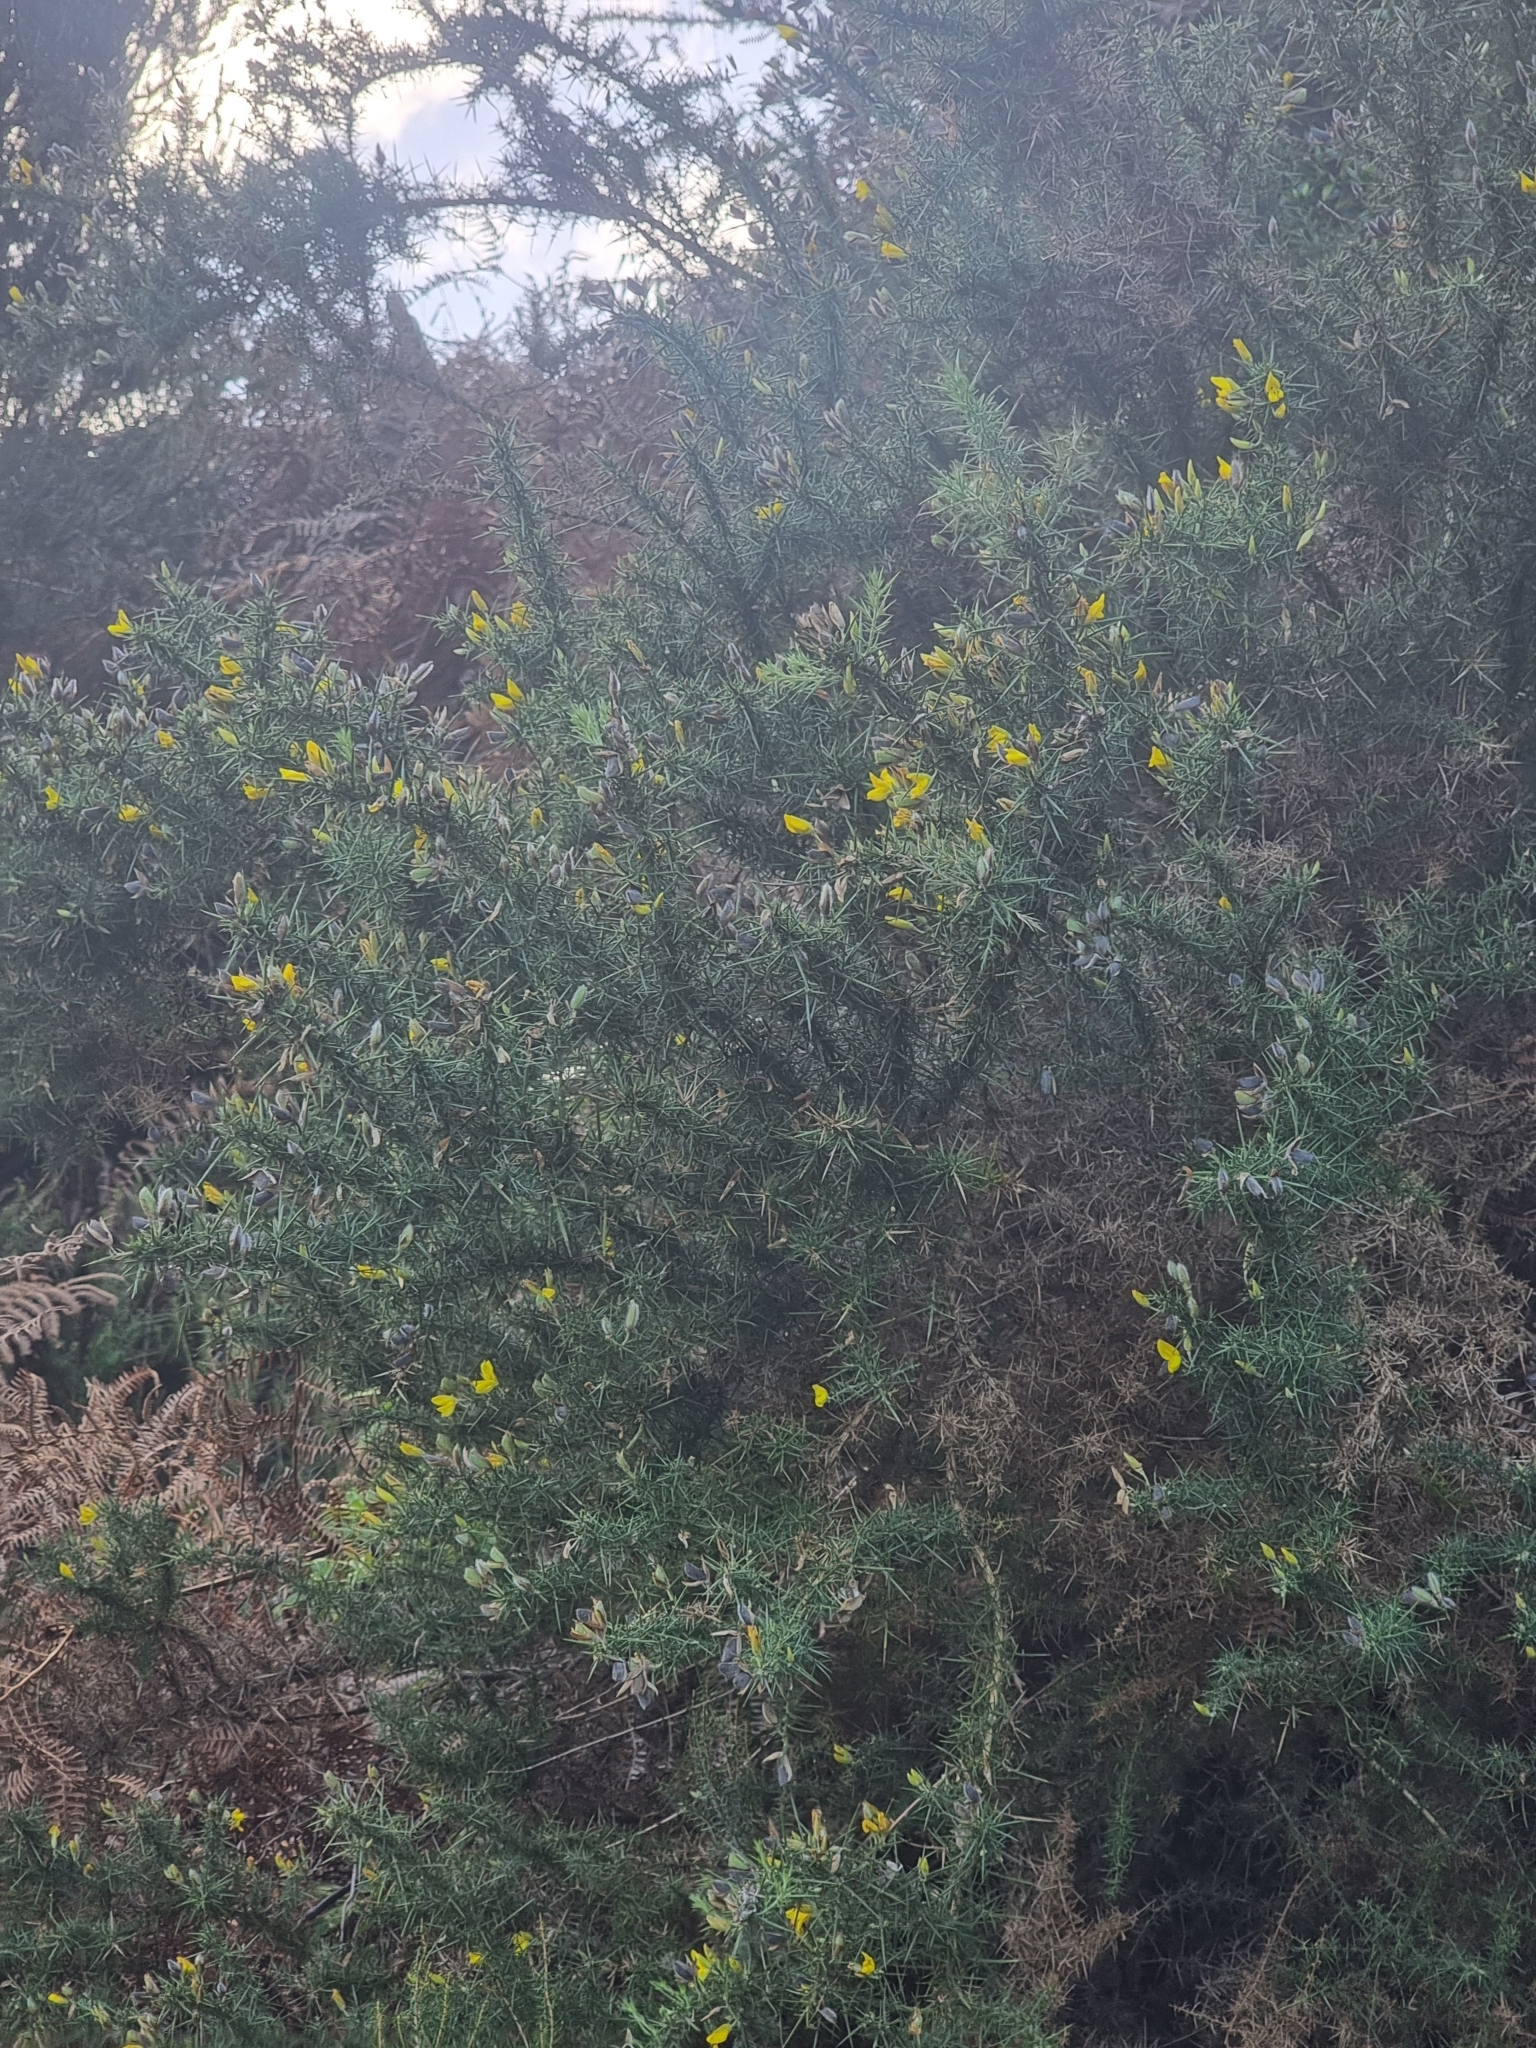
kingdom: Plantae
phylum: Tracheophyta
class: Magnoliopsida
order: Fabales
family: Fabaceae
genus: Ulex
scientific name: Ulex europaeus
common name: Common gorse
